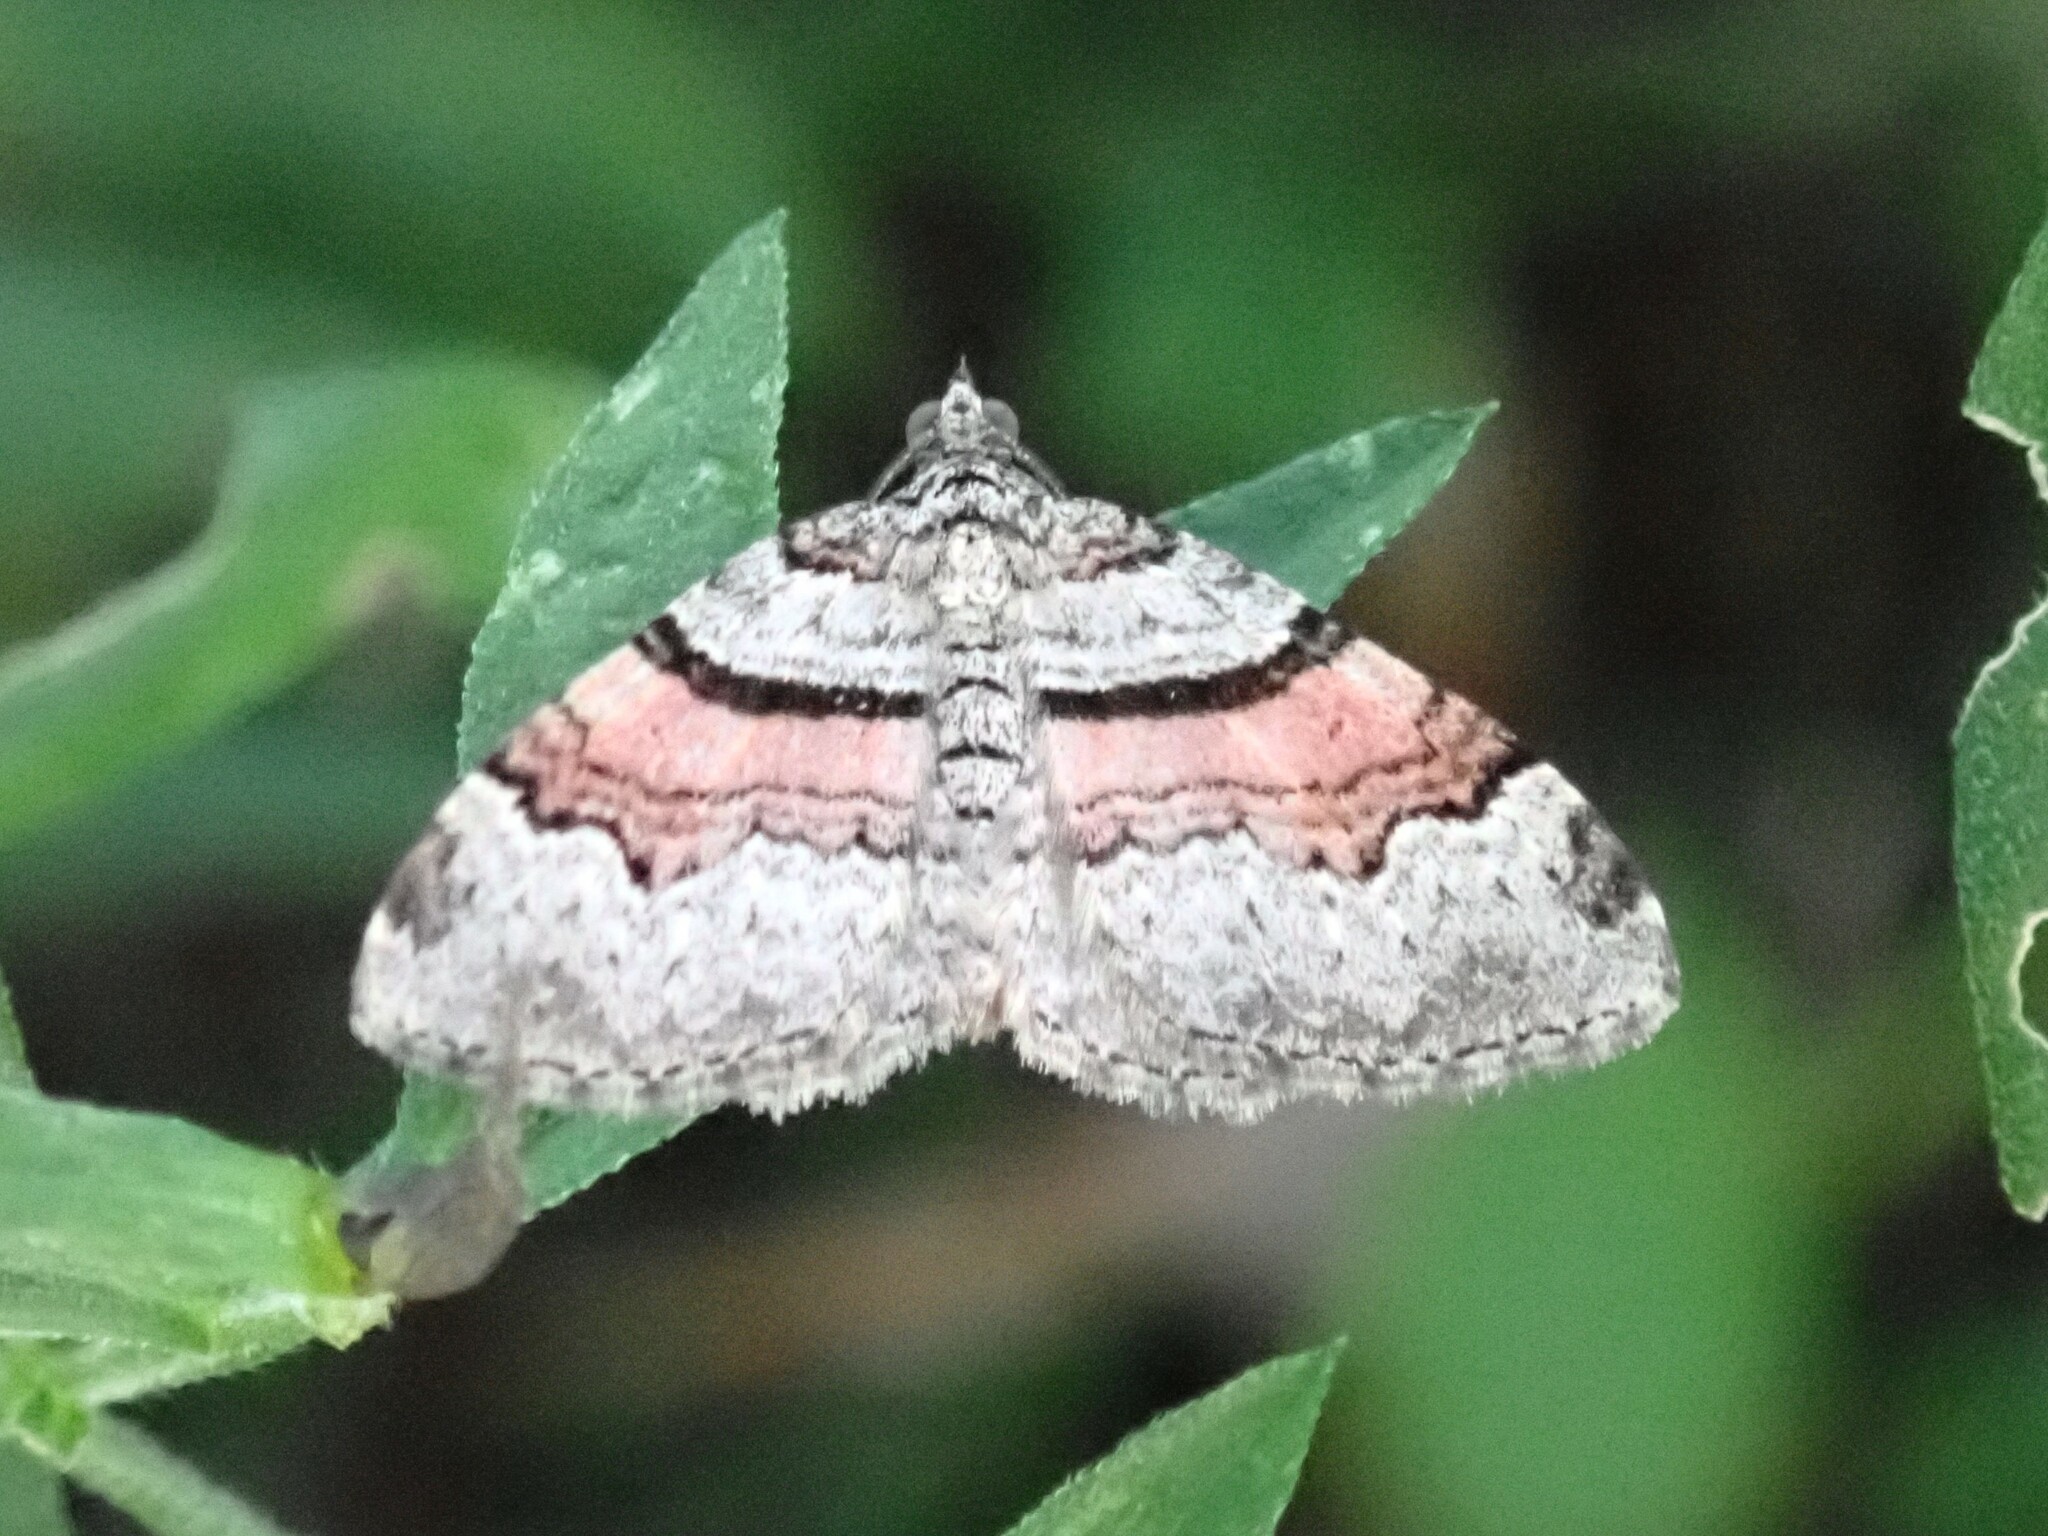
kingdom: Animalia
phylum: Arthropoda
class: Insecta
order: Lepidoptera
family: Geometridae
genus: Xanthorhoe
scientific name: Xanthorhoe labradorensis
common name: Labrador carpet
